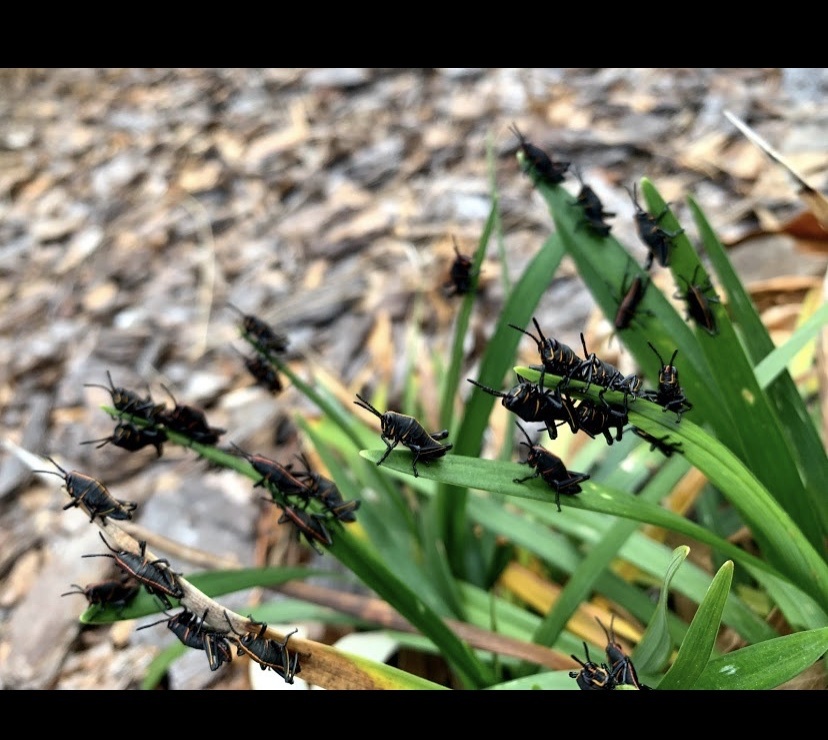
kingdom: Animalia
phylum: Arthropoda
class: Insecta
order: Orthoptera
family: Romaleidae
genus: Romalea
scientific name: Romalea microptera
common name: Eastern lubber grasshopper
